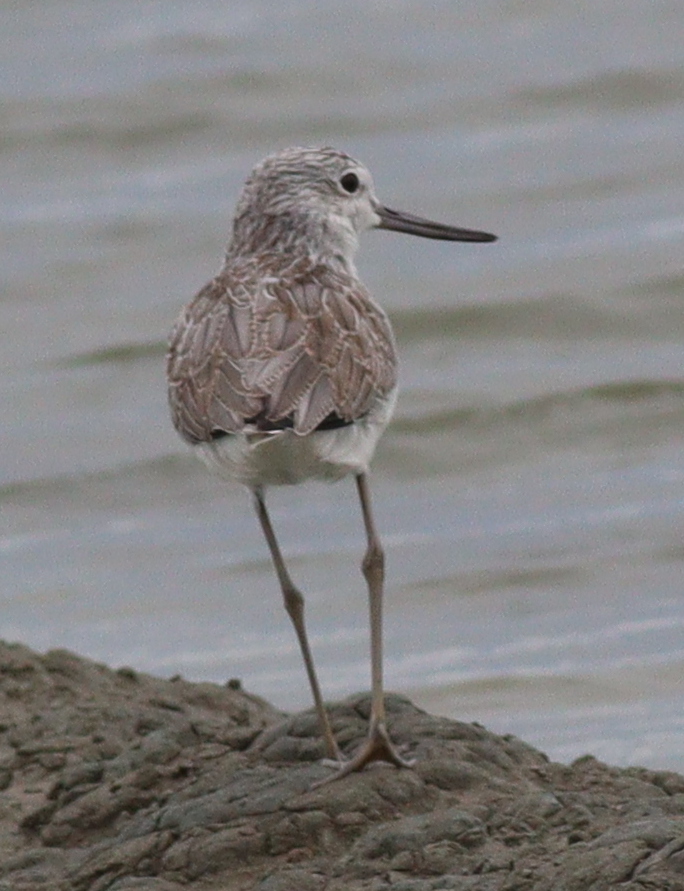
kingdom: Animalia
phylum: Chordata
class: Aves
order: Charadriiformes
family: Scolopacidae
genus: Tringa
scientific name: Tringa nebularia
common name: Common greenshank
